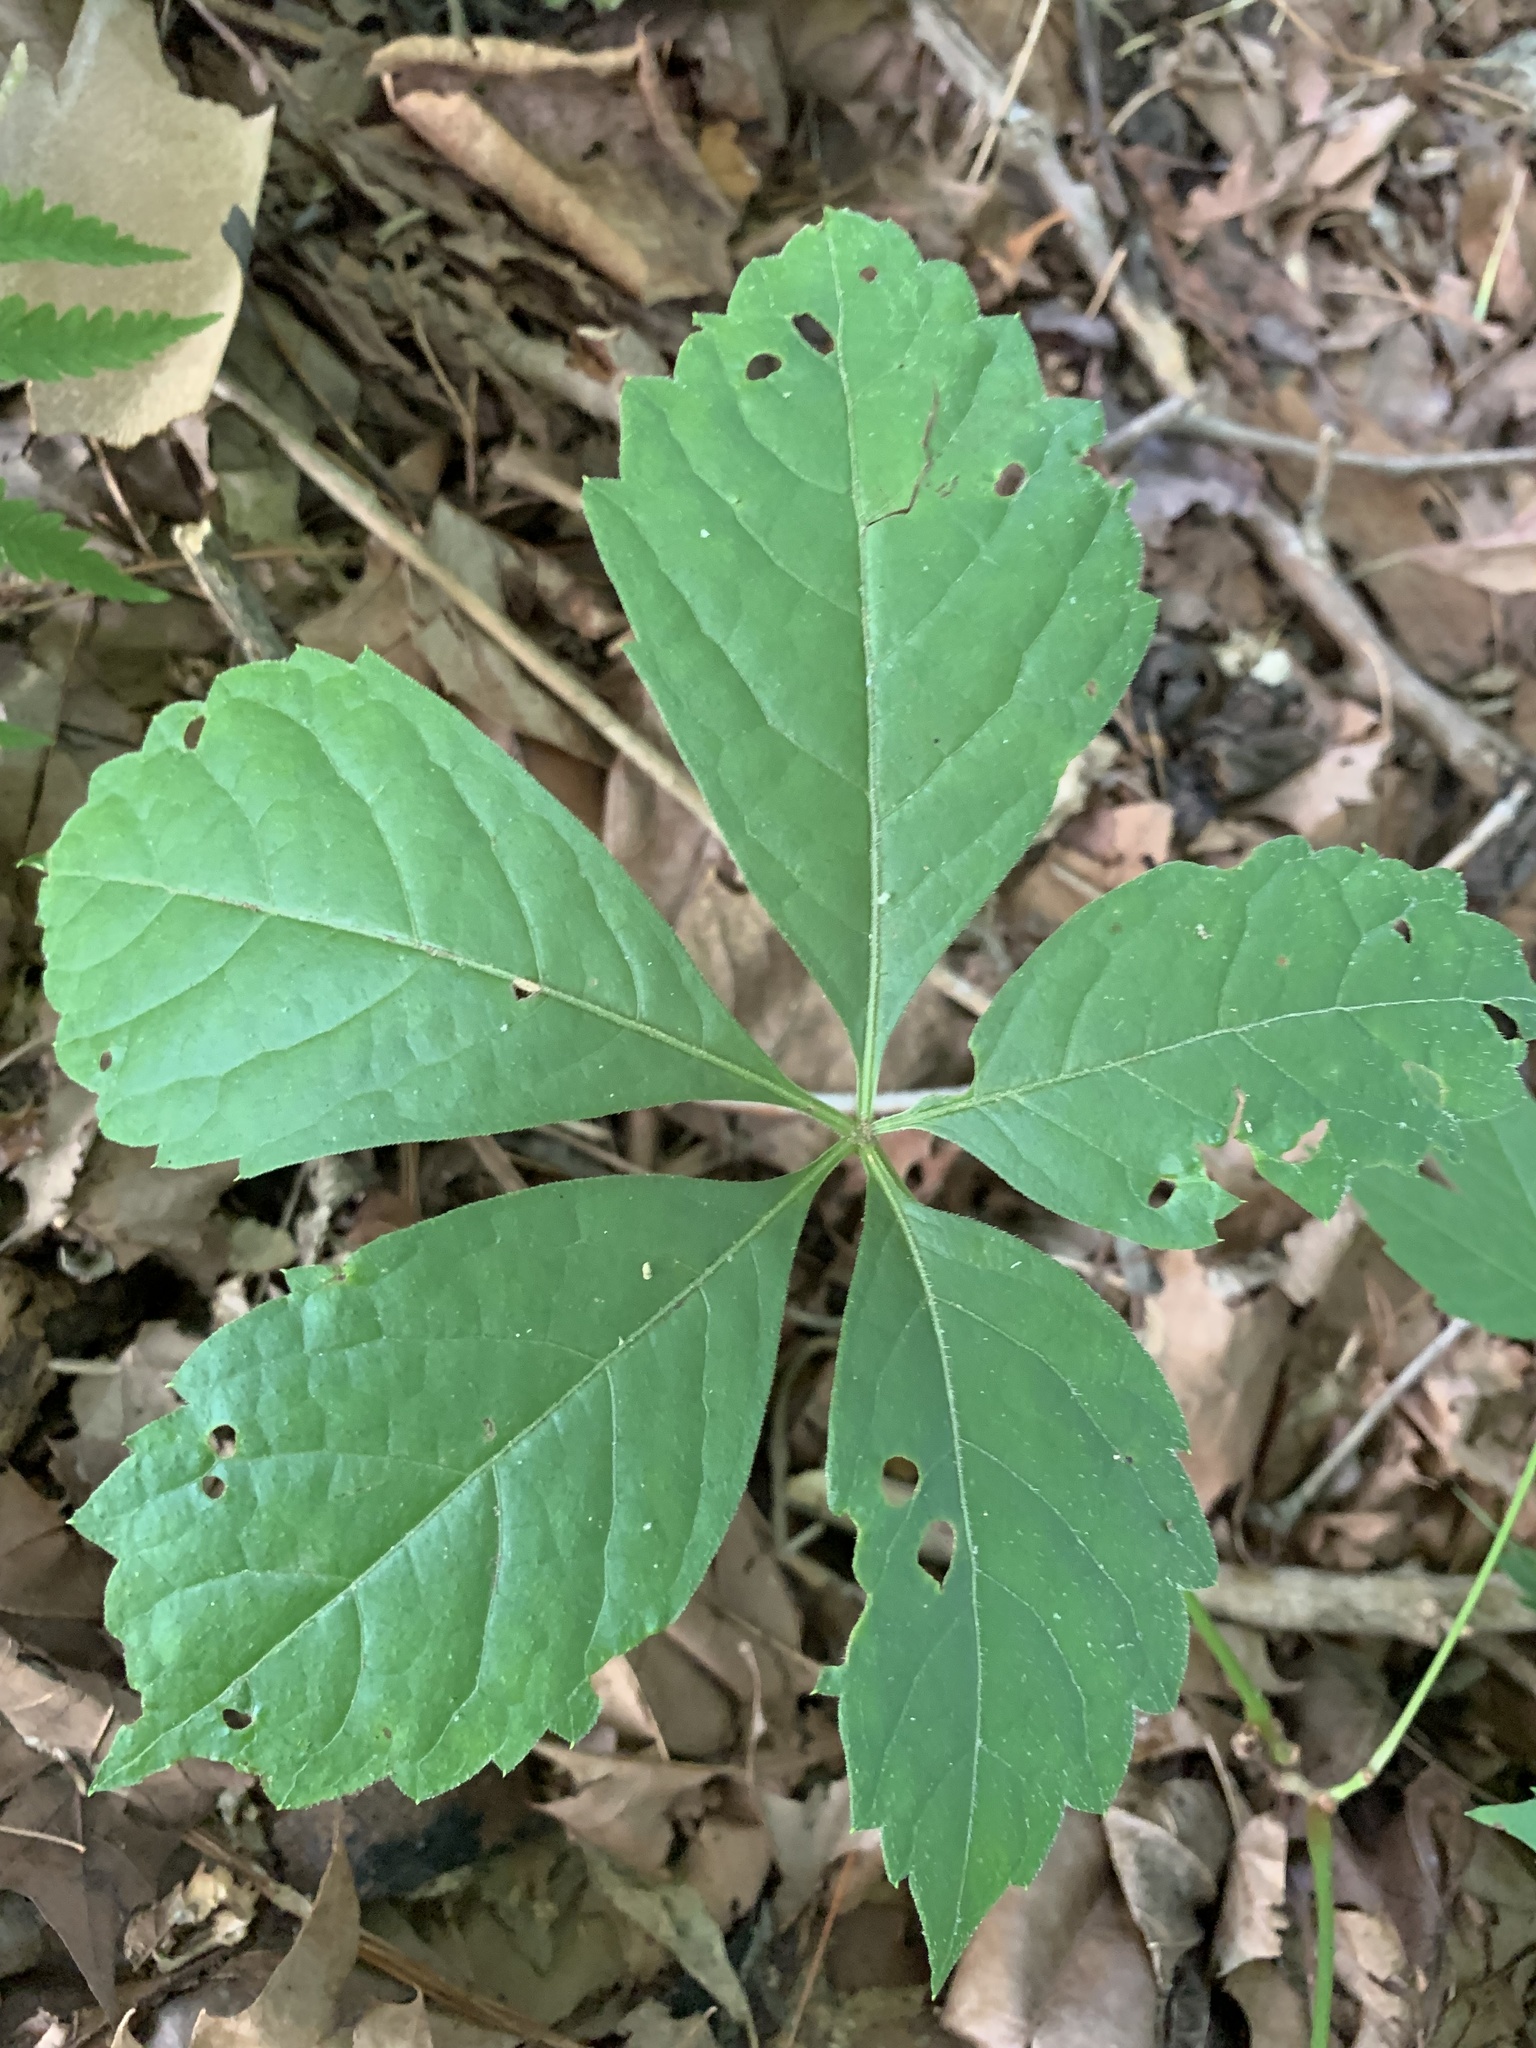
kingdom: Plantae
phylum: Tracheophyta
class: Magnoliopsida
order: Vitales
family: Vitaceae
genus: Parthenocissus
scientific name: Parthenocissus quinquefolia
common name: Virginia-creeper
